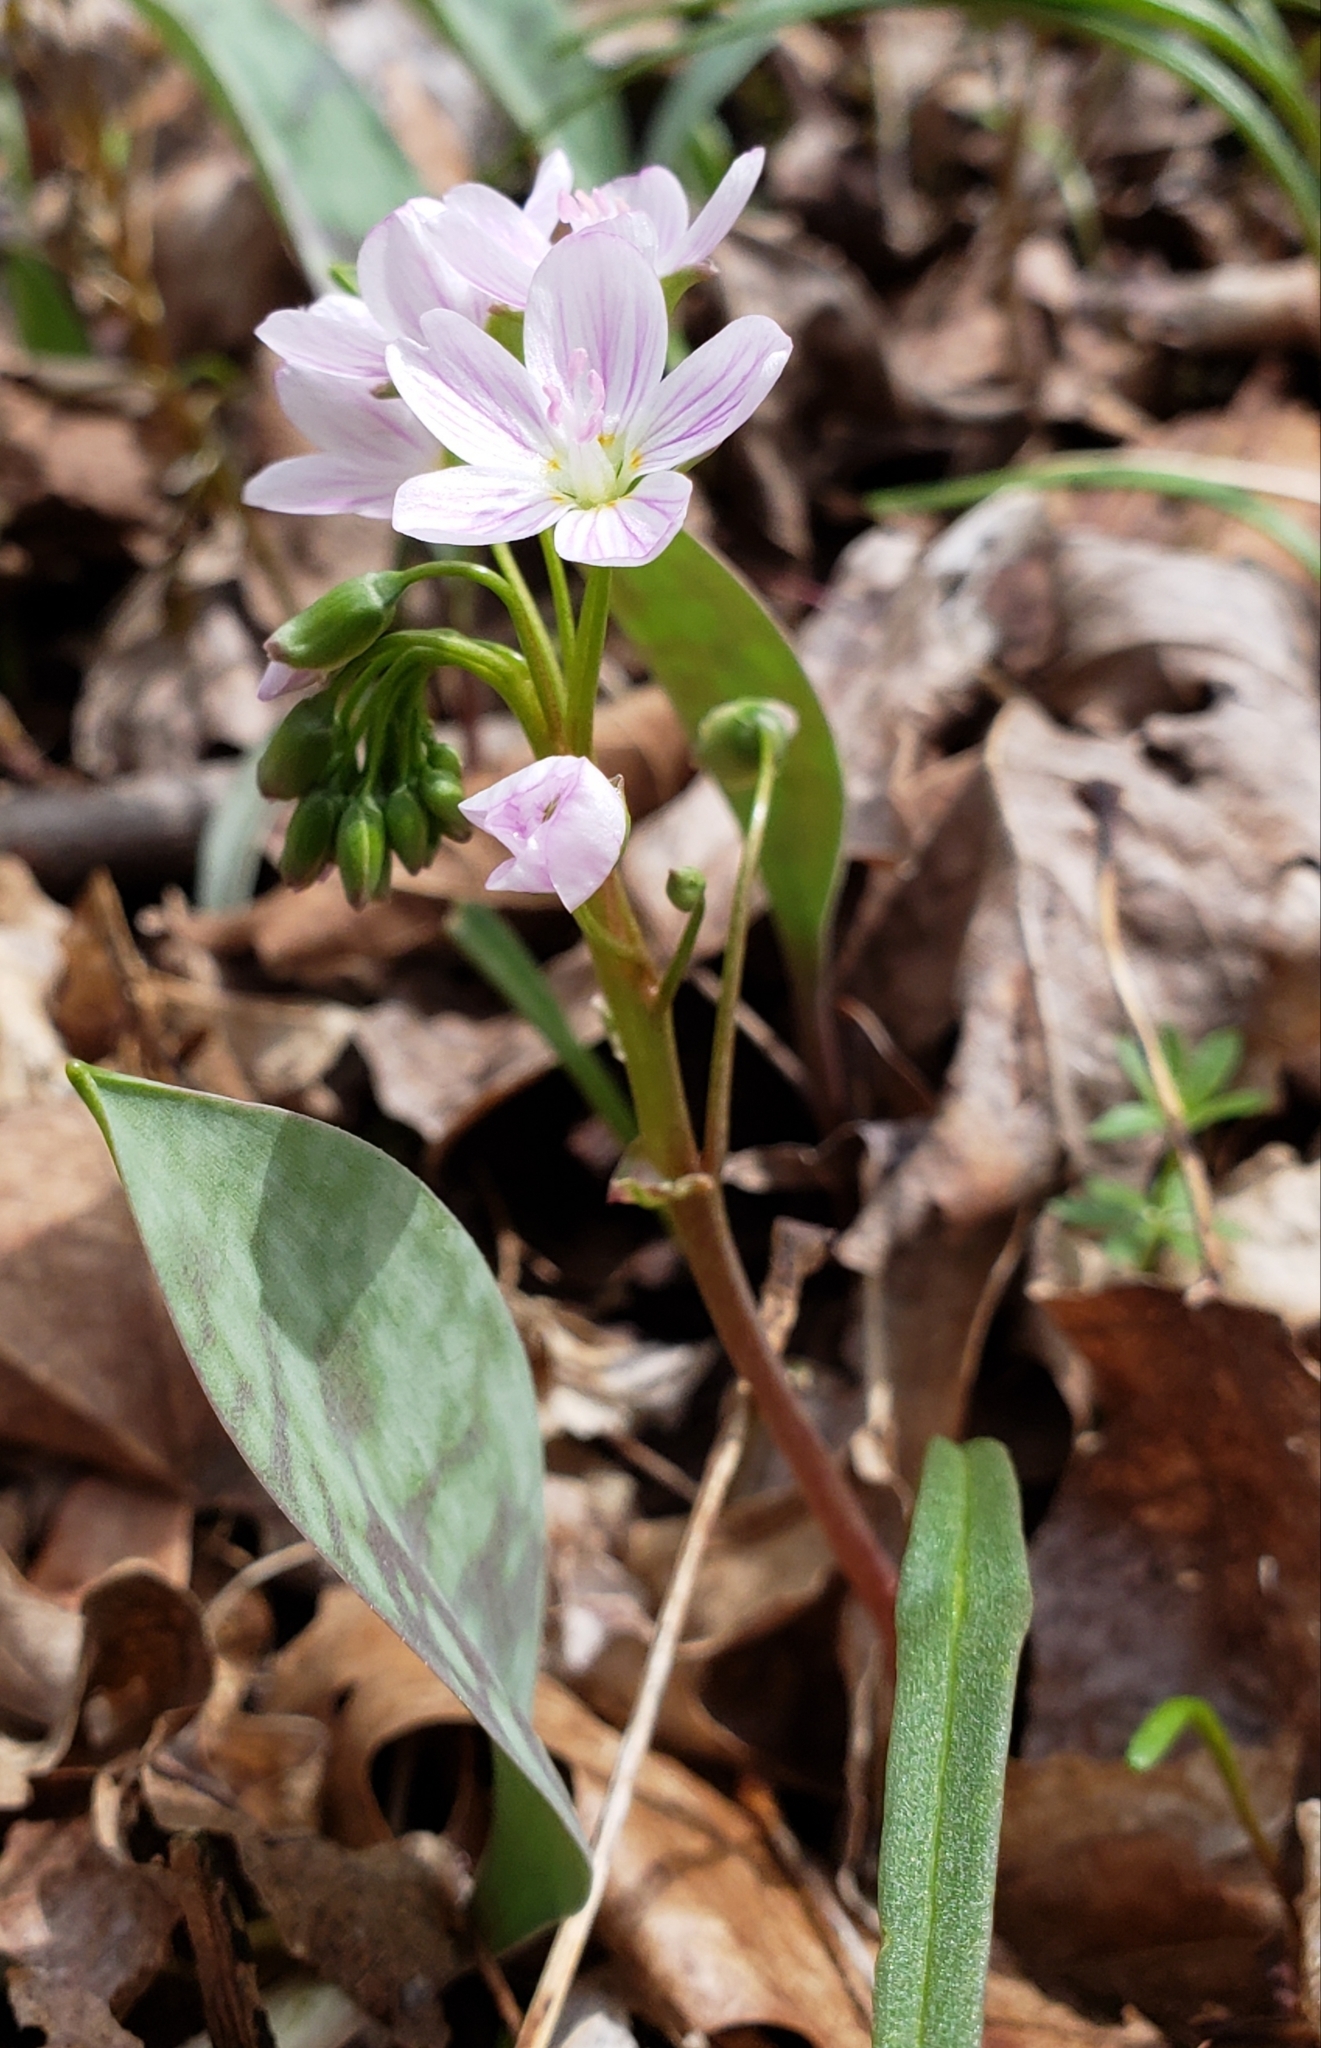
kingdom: Plantae
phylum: Tracheophyta
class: Magnoliopsida
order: Caryophyllales
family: Montiaceae
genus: Claytonia
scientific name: Claytonia virginica
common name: Virginia springbeauty
